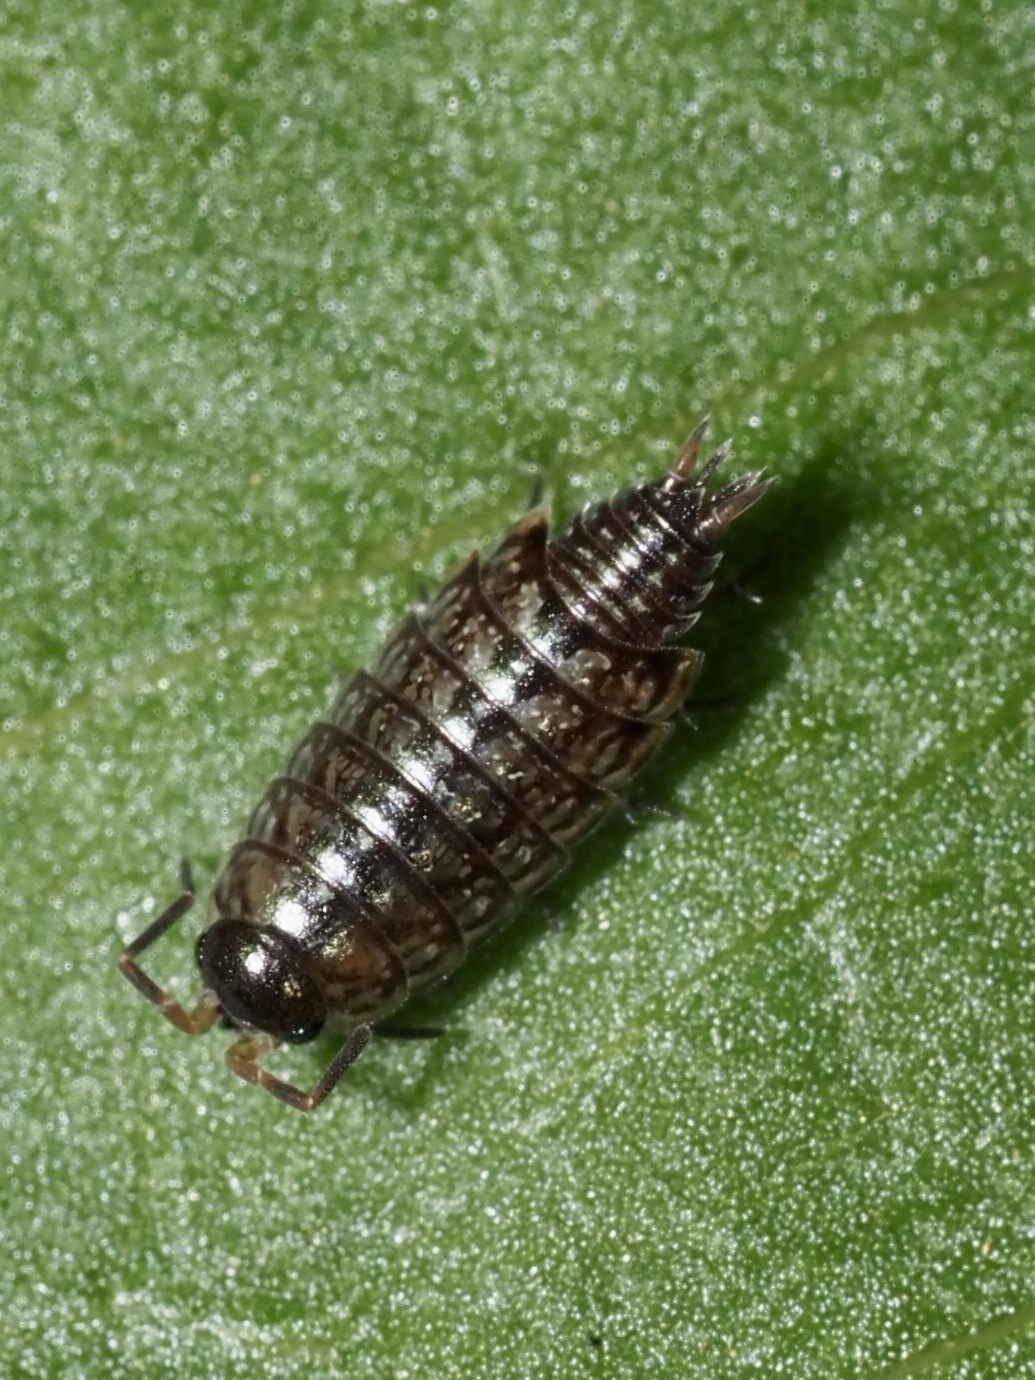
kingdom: Animalia
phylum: Arthropoda
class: Malacostraca
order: Isopoda
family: Philosciidae
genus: Philoscia
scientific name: Philoscia muscorum
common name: Common striped woodlouse
